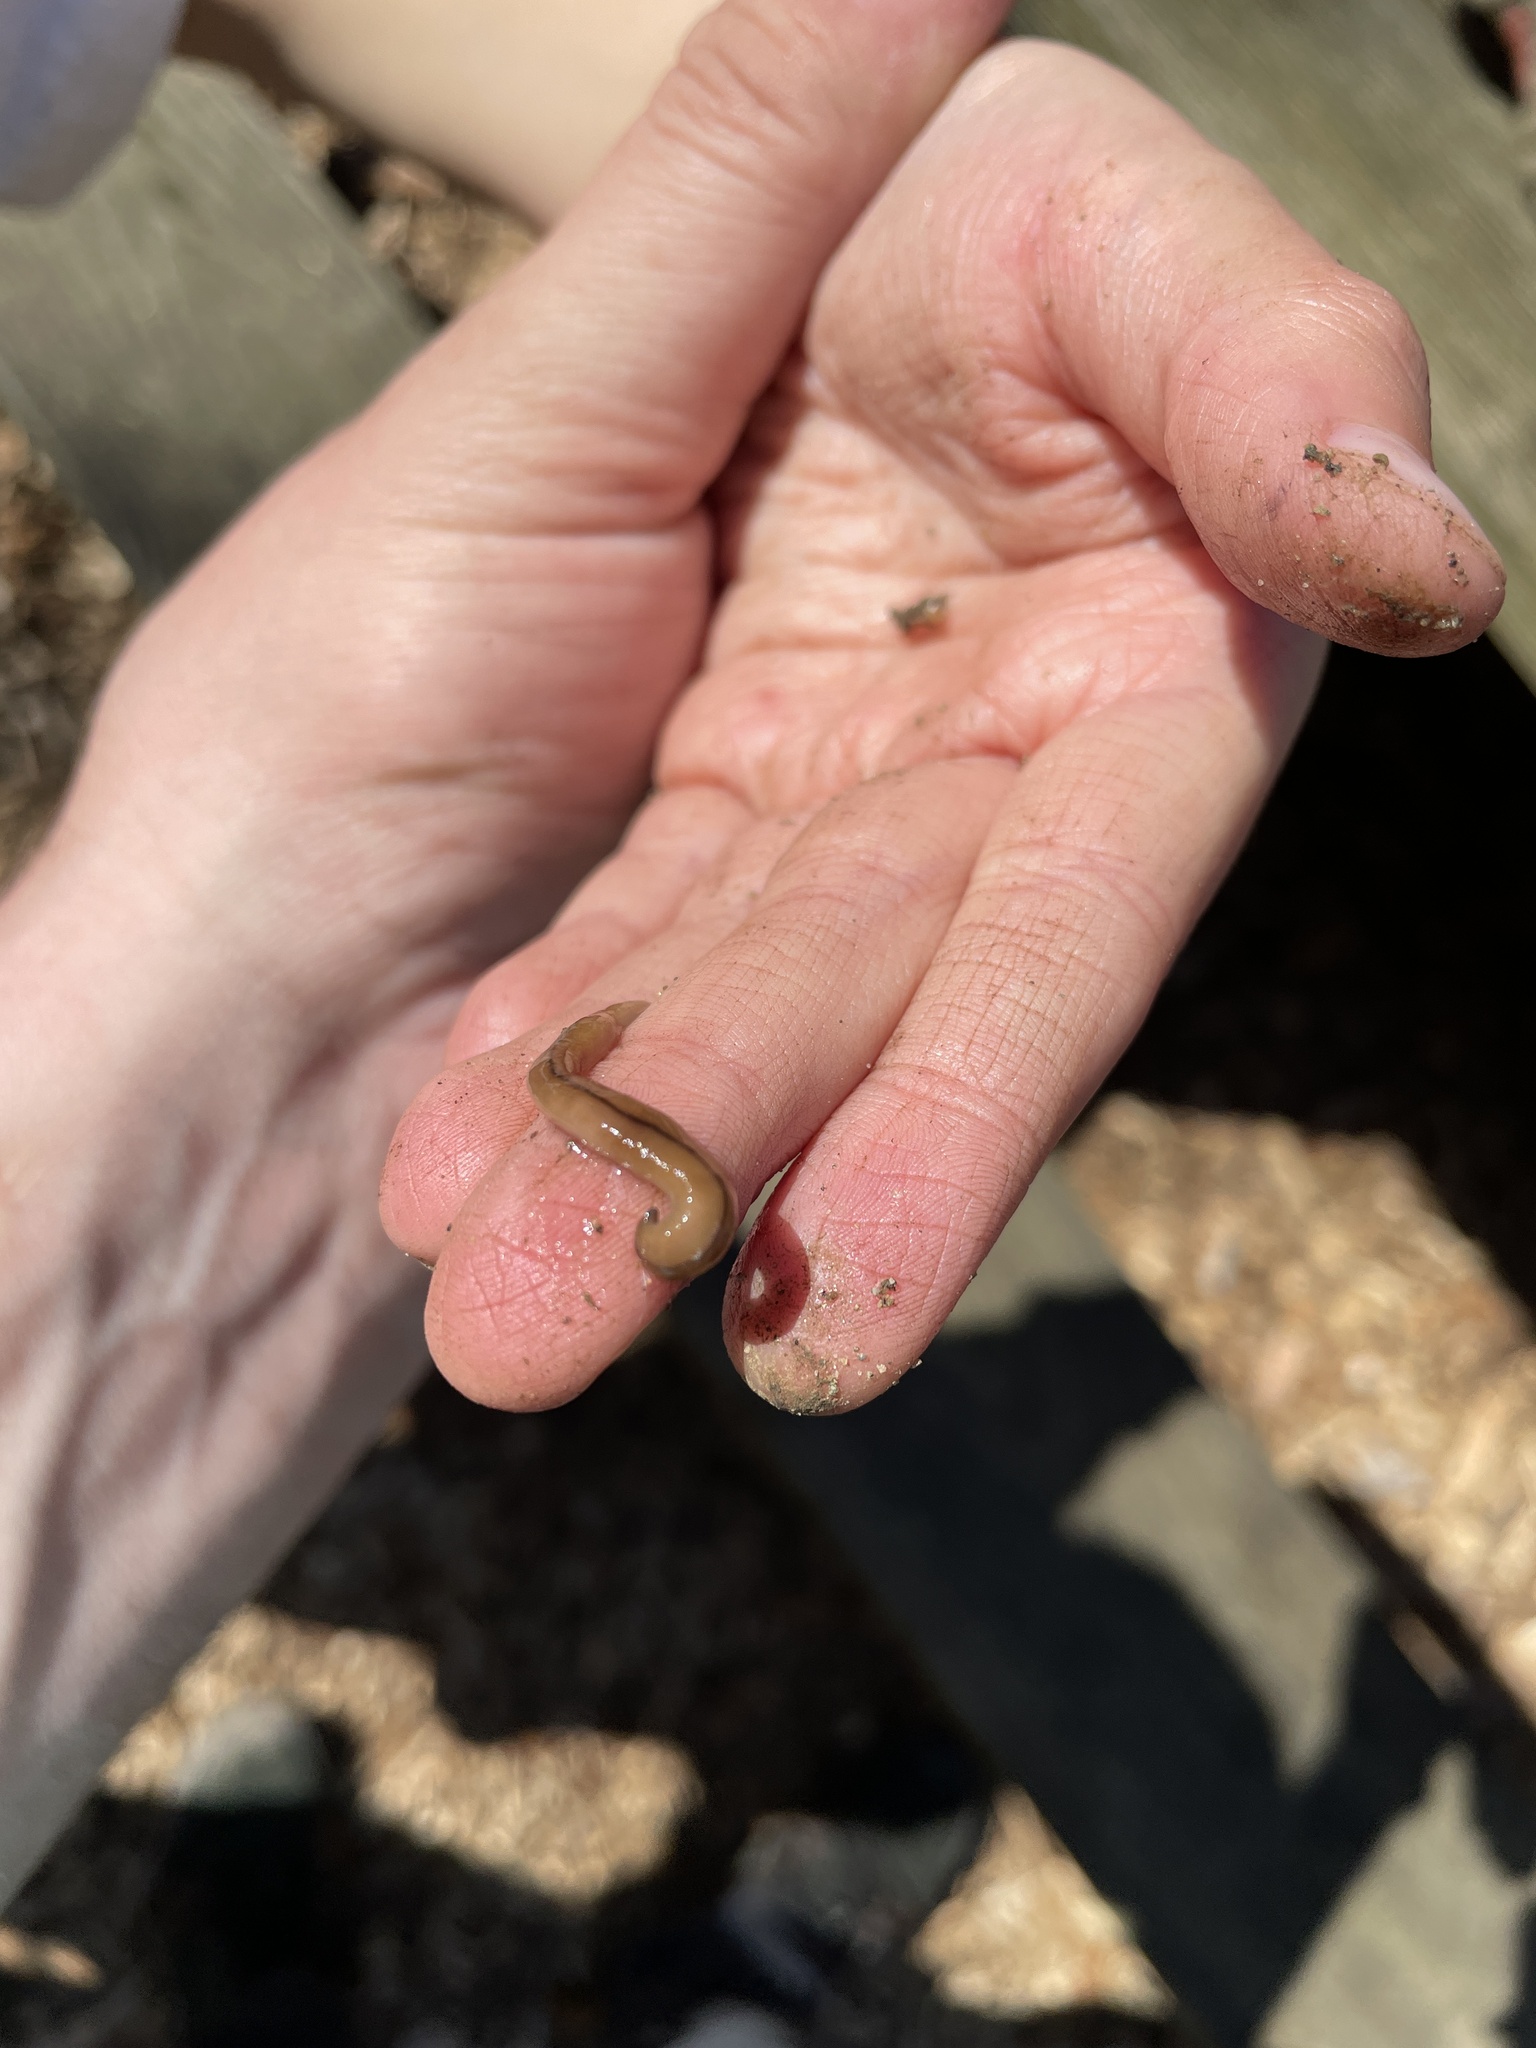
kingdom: Animalia
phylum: Platyhelminthes
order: Tricladida
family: Geoplanidae
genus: Bipalium
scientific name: Bipalium adventitium
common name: Land planarian
